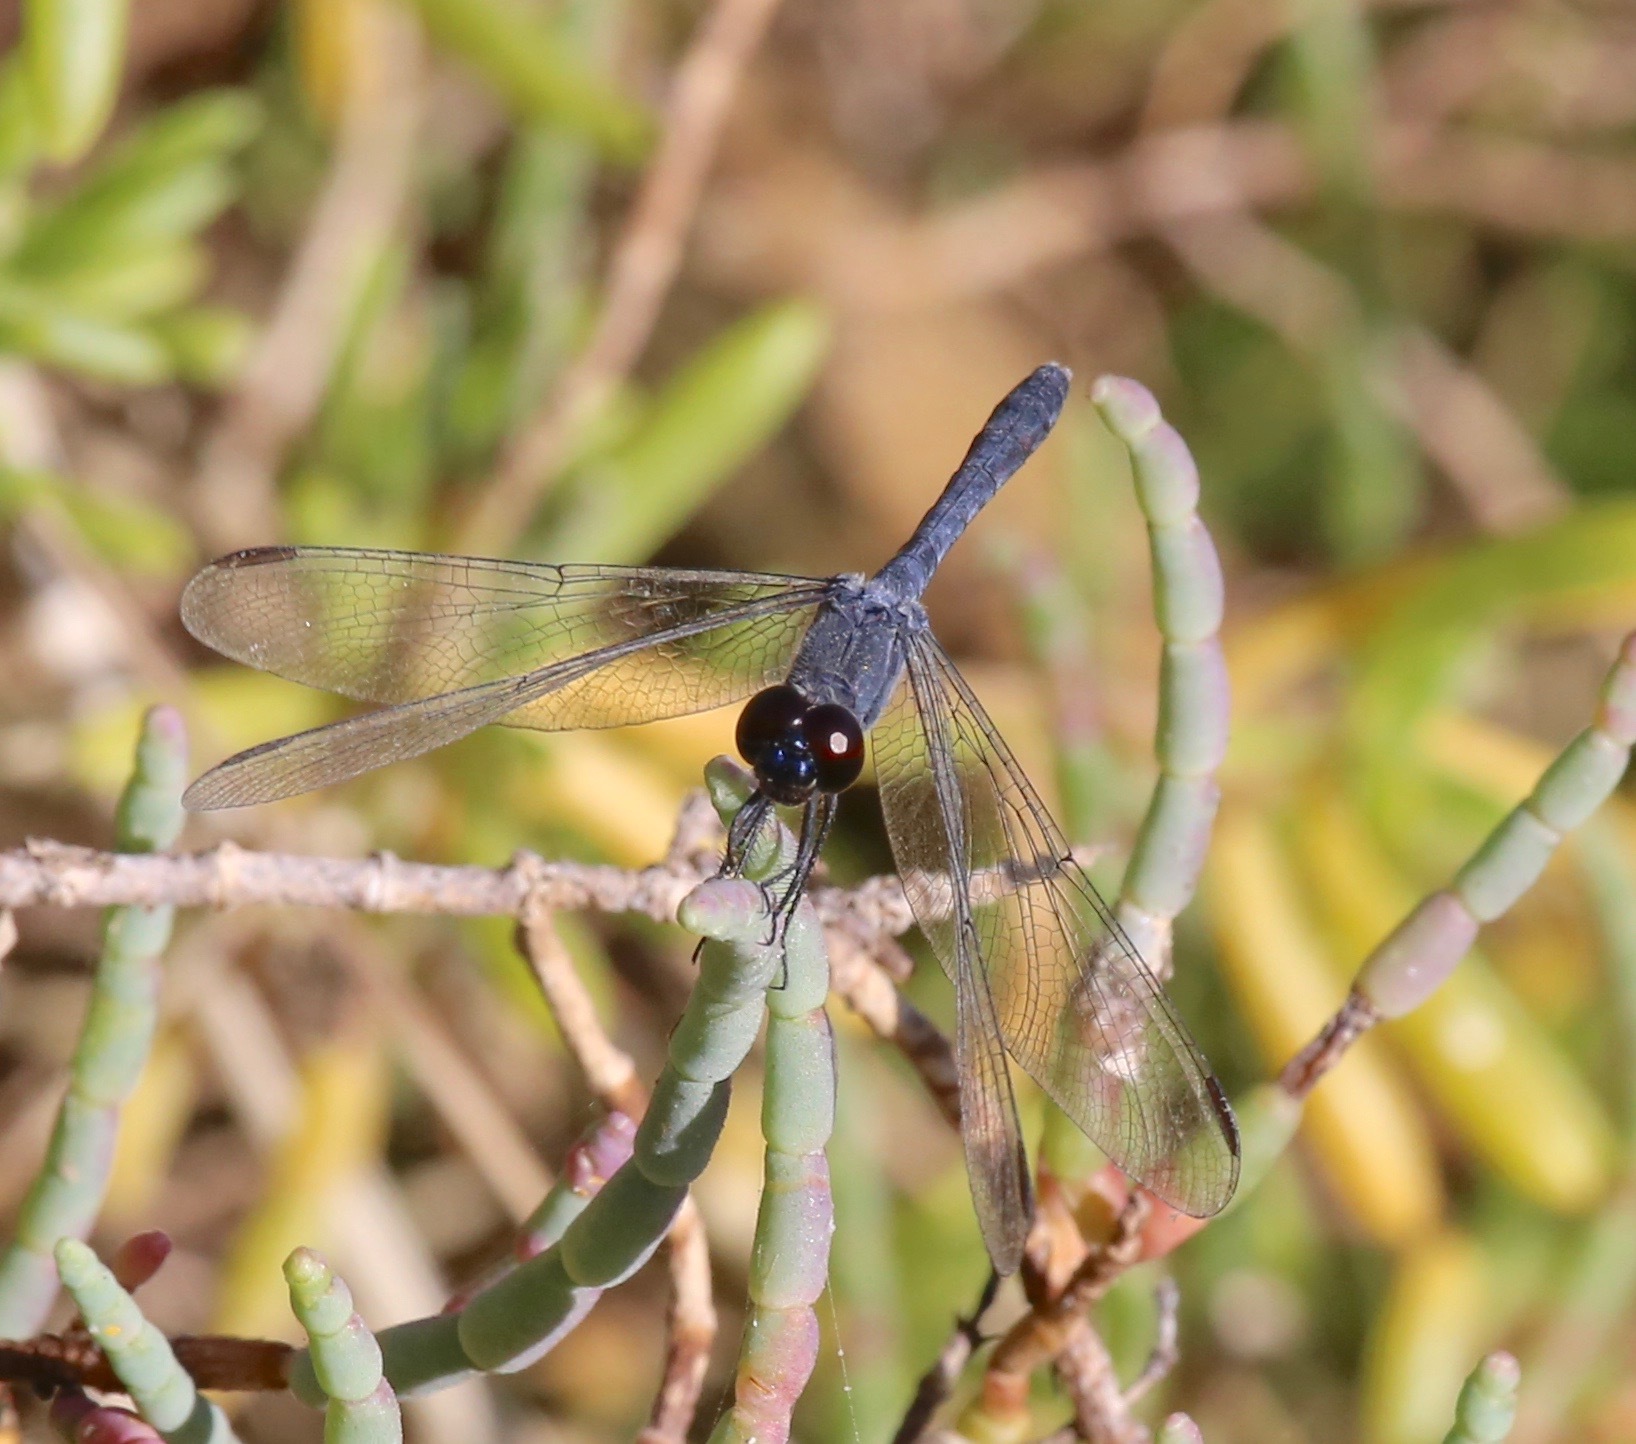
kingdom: Animalia
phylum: Arthropoda
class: Insecta
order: Odonata
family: Libellulidae
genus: Erythrodiplax
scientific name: Erythrodiplax berenice
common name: Seaside dragonlet
